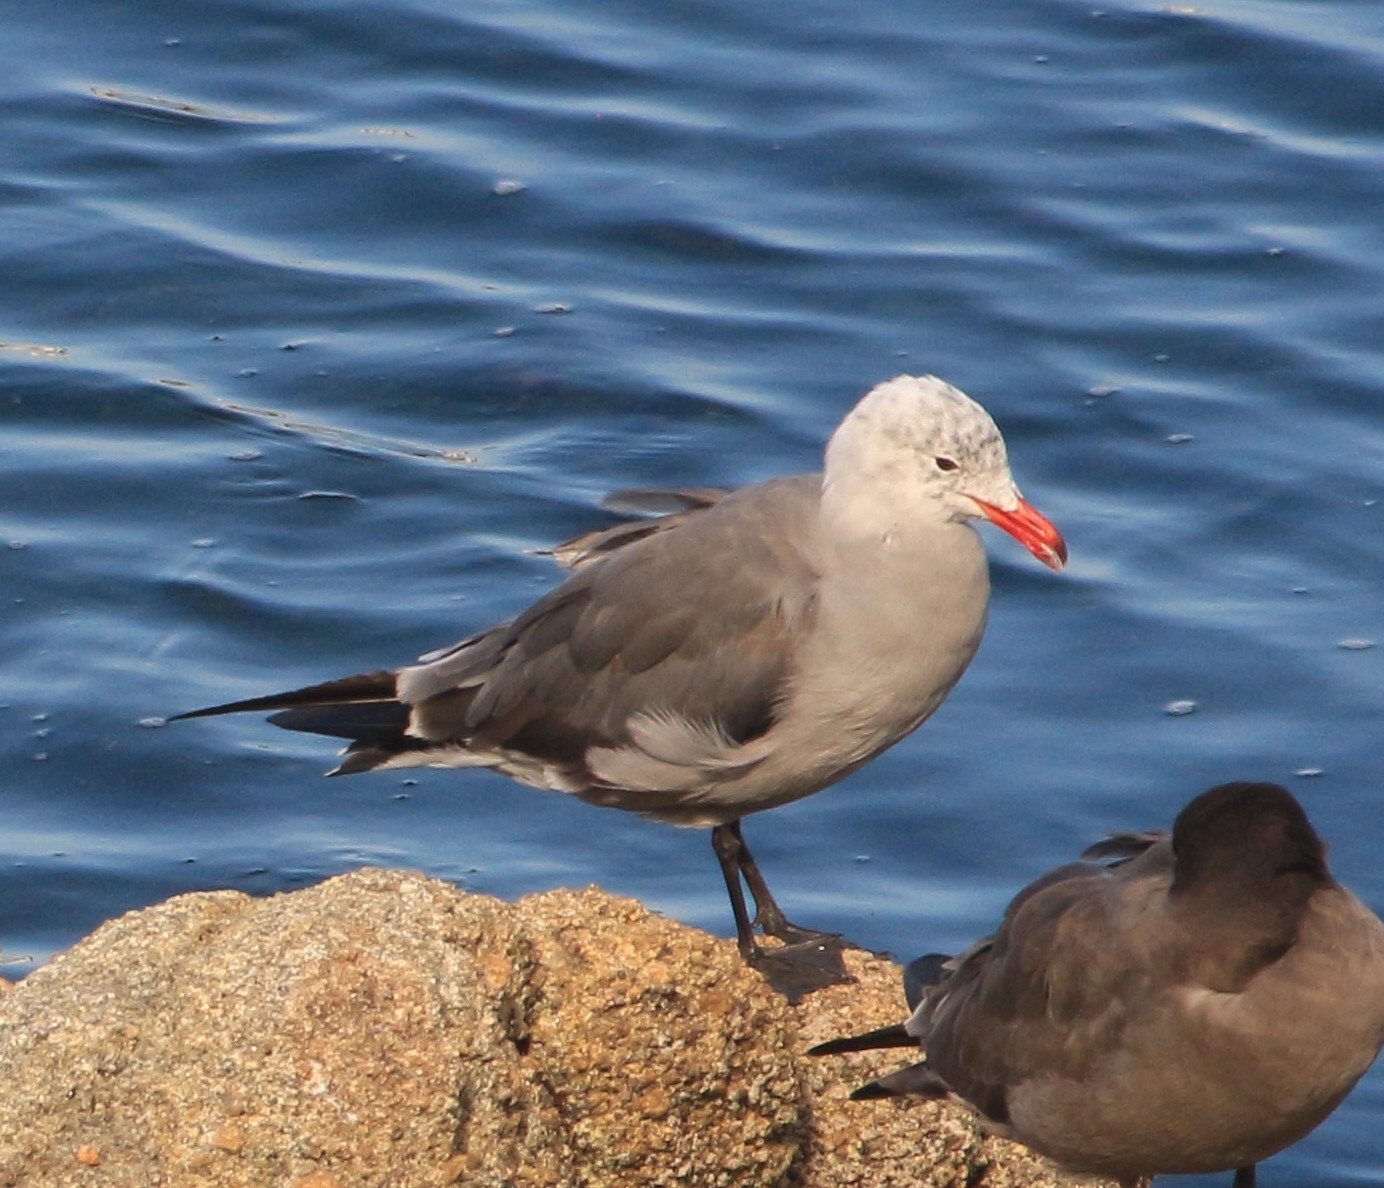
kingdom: Animalia
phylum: Chordata
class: Aves
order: Charadriiformes
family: Laridae
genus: Larus
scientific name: Larus heermanni
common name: Heermann's gull
